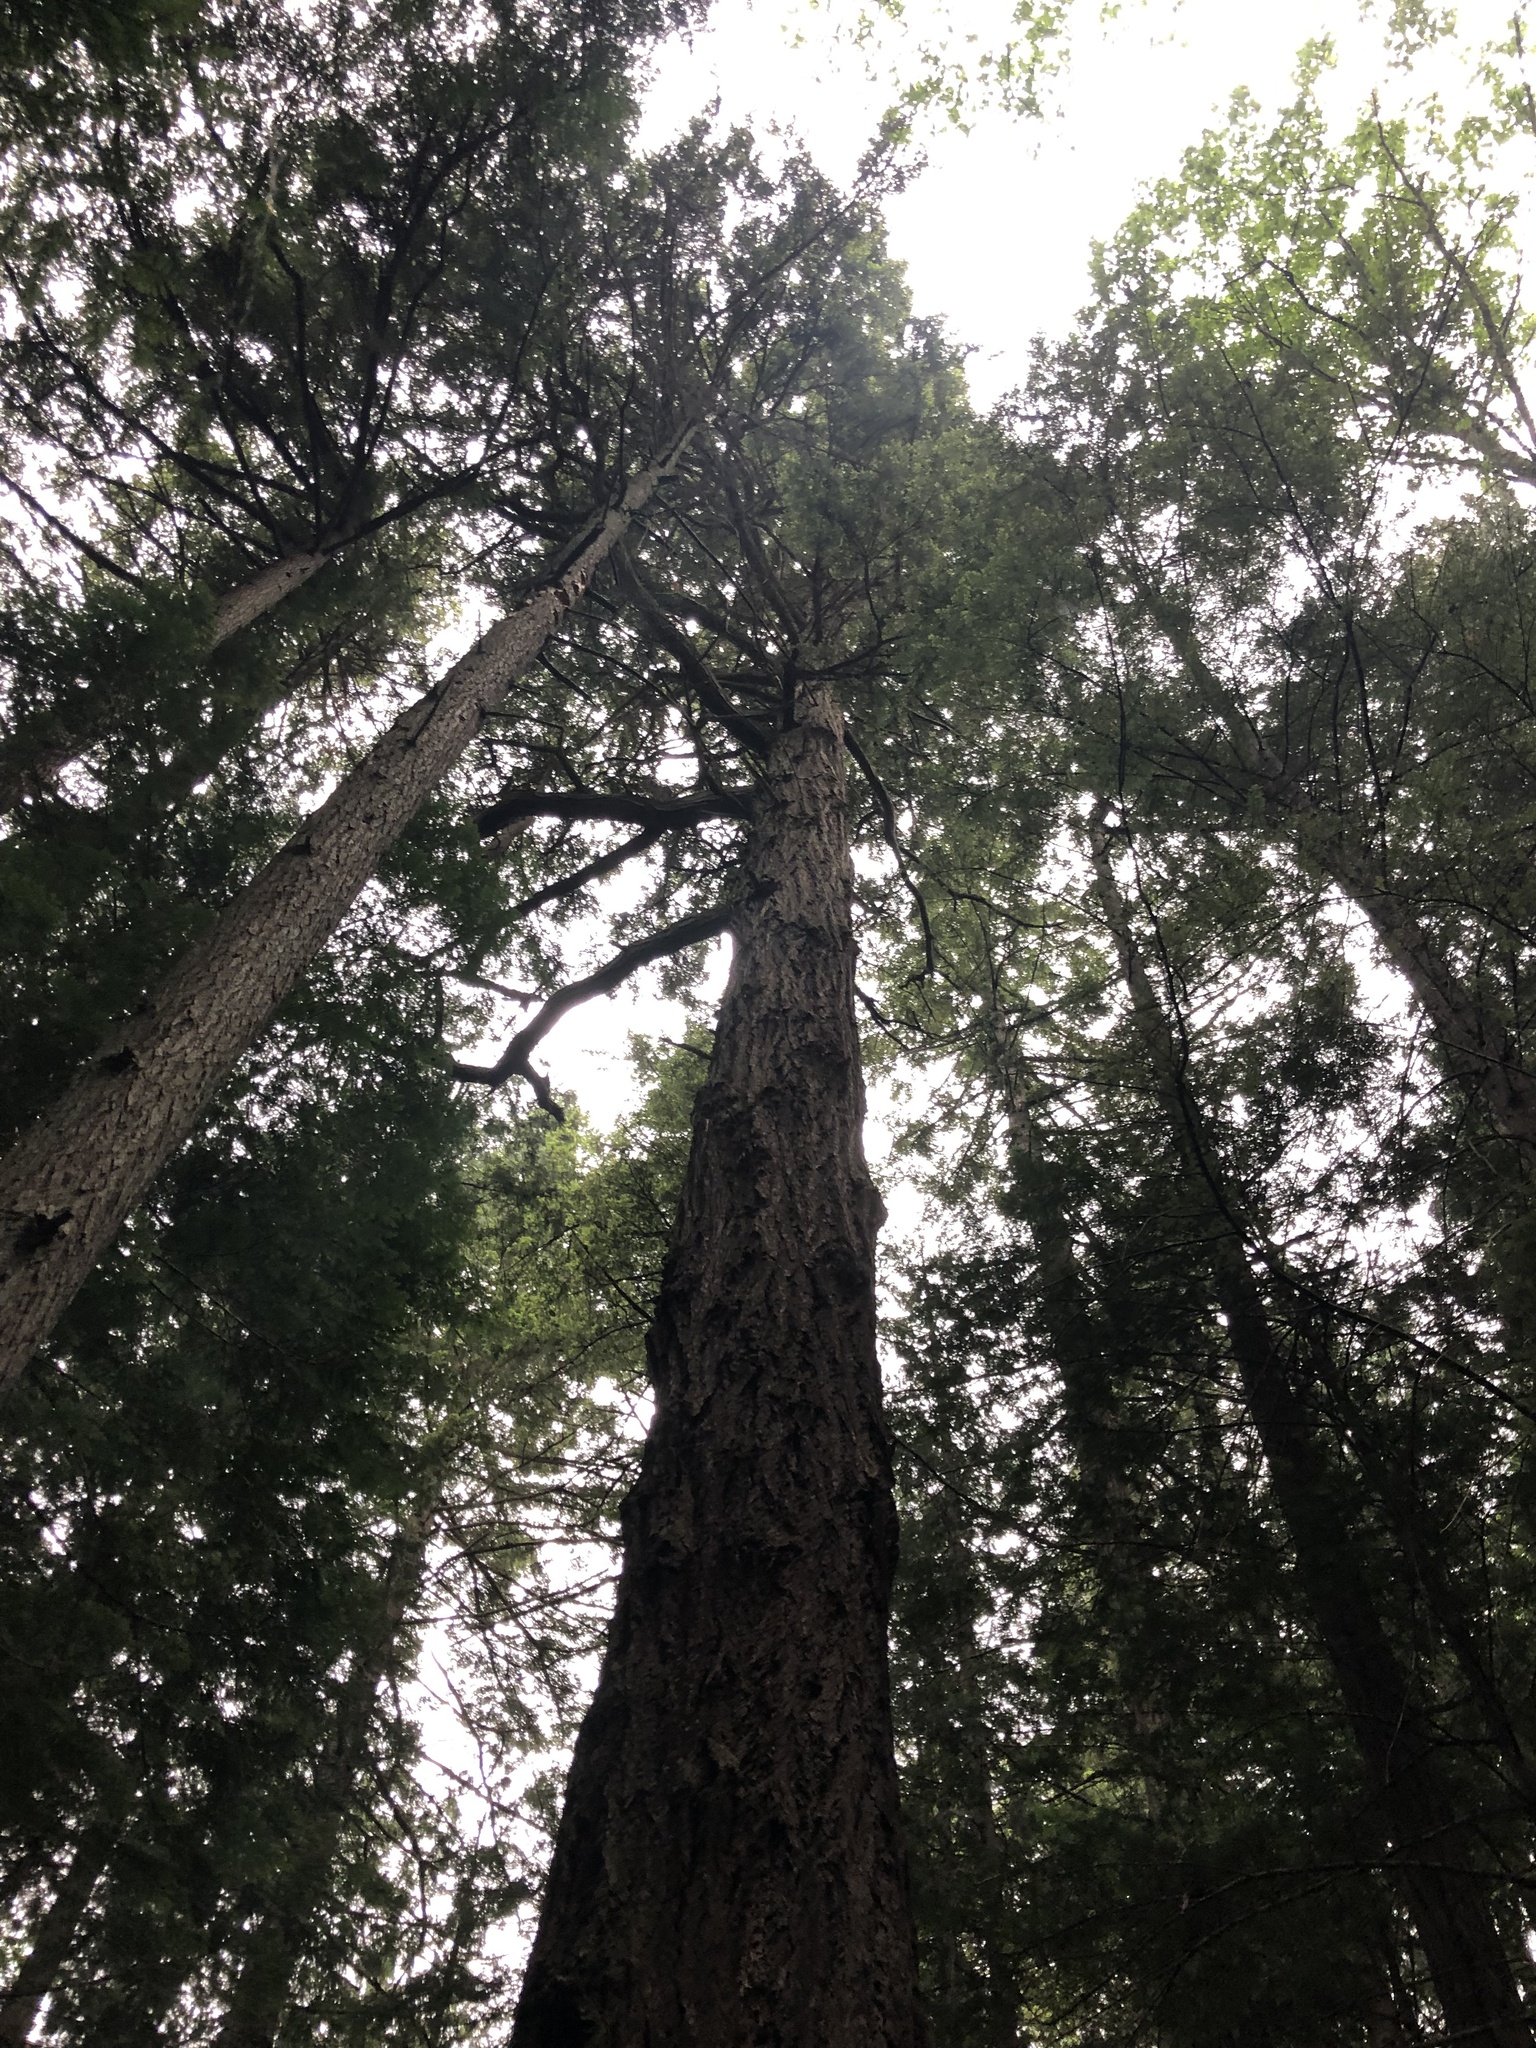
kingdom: Plantae
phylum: Tracheophyta
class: Pinopsida
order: Pinales
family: Pinaceae
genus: Pseudotsuga
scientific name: Pseudotsuga menziesii
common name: Douglas fir
